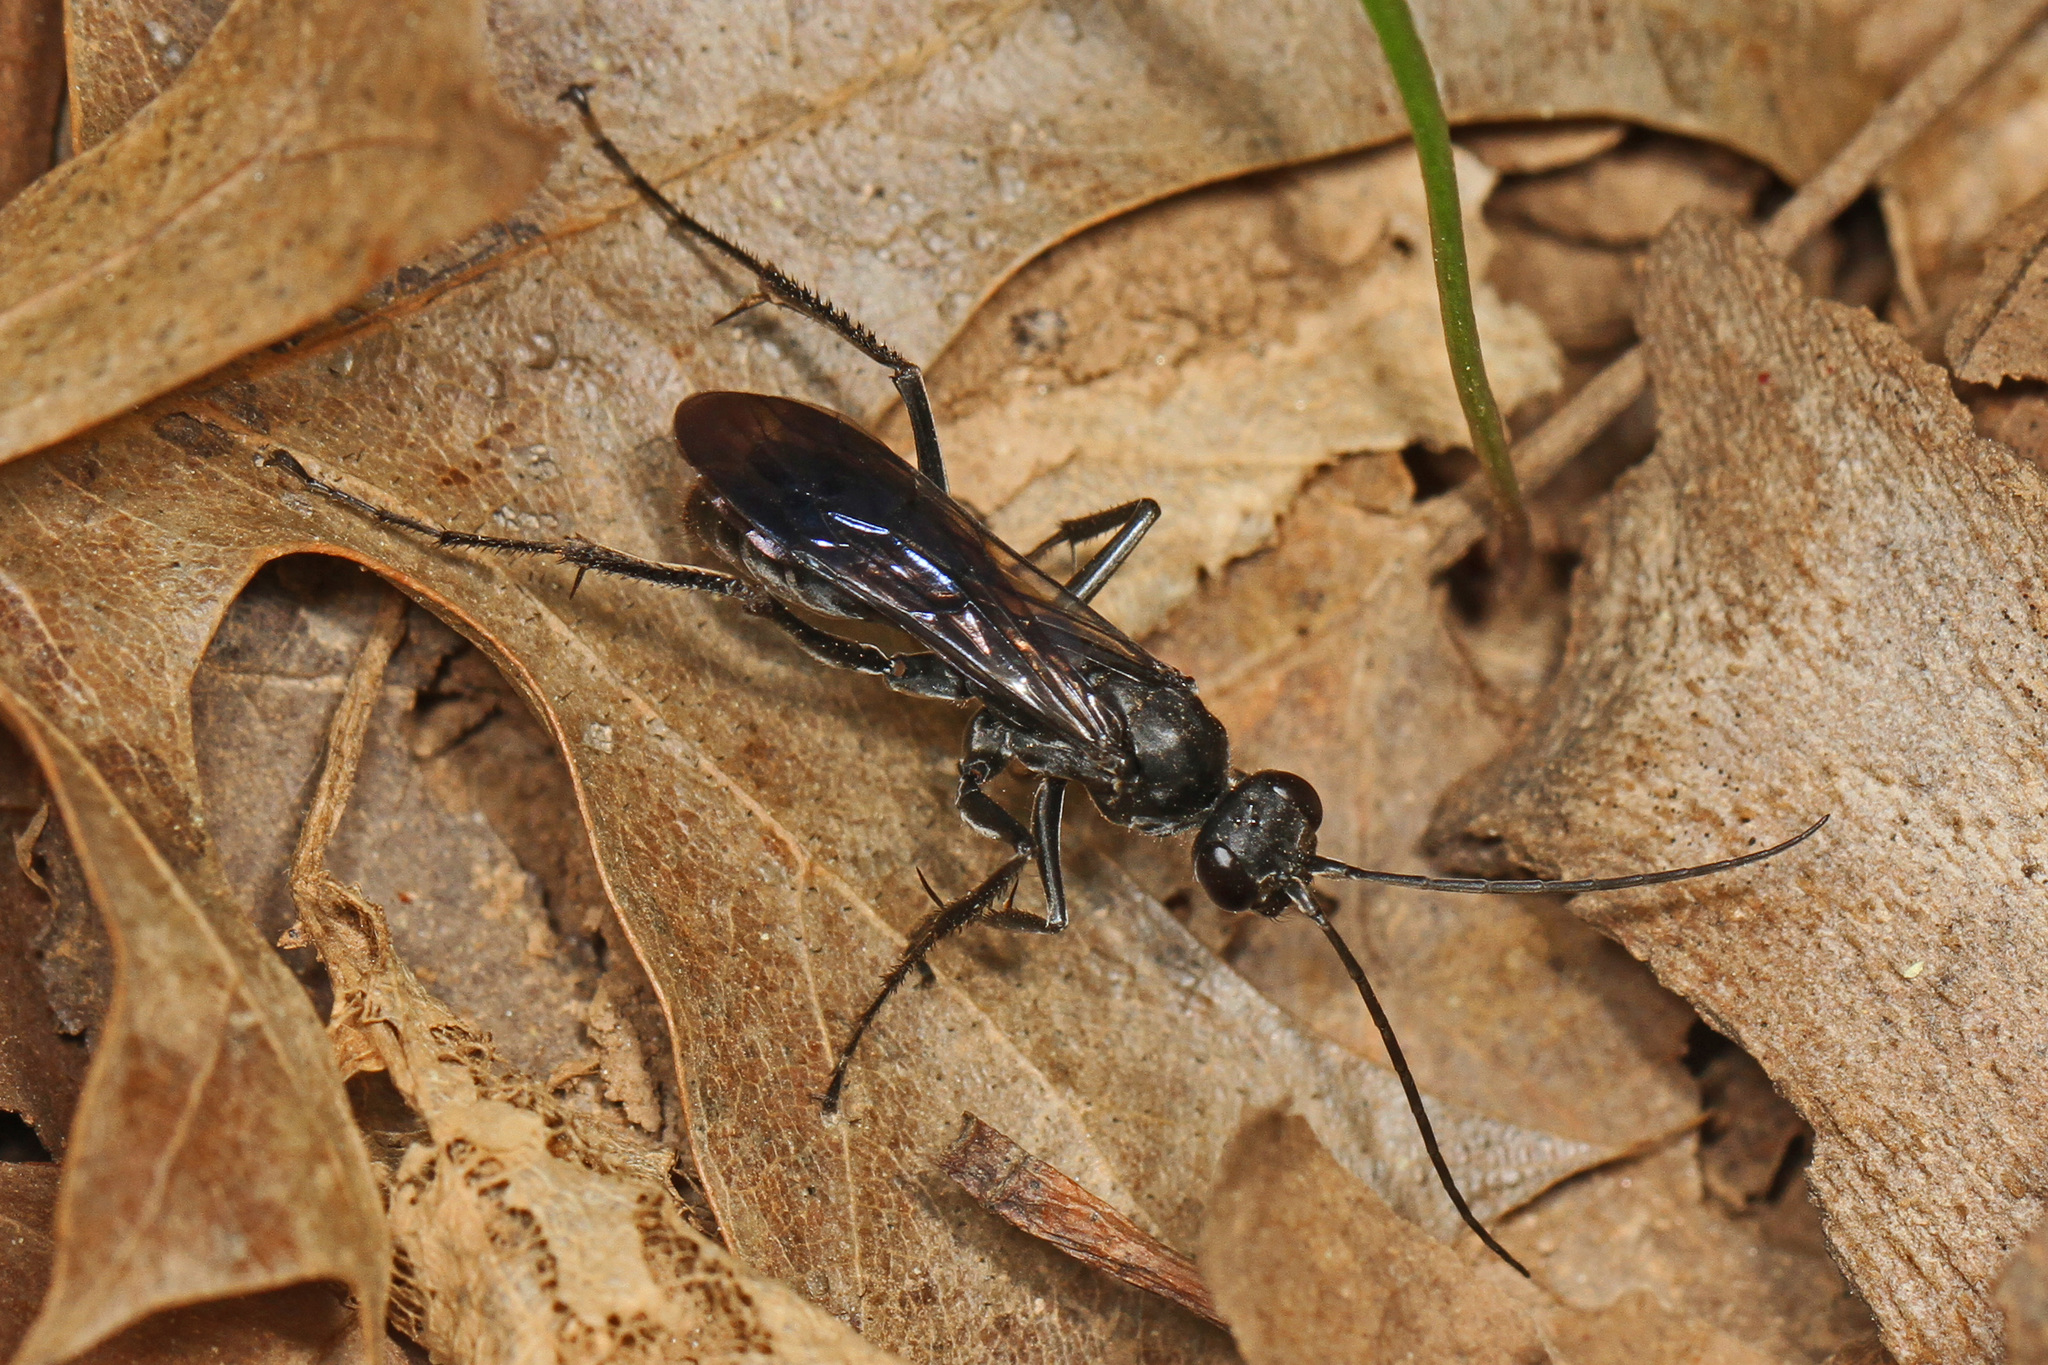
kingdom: Animalia
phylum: Arthropoda
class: Insecta
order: Hymenoptera
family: Pompilidae
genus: Priocnemis
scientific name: Priocnemis minorata
